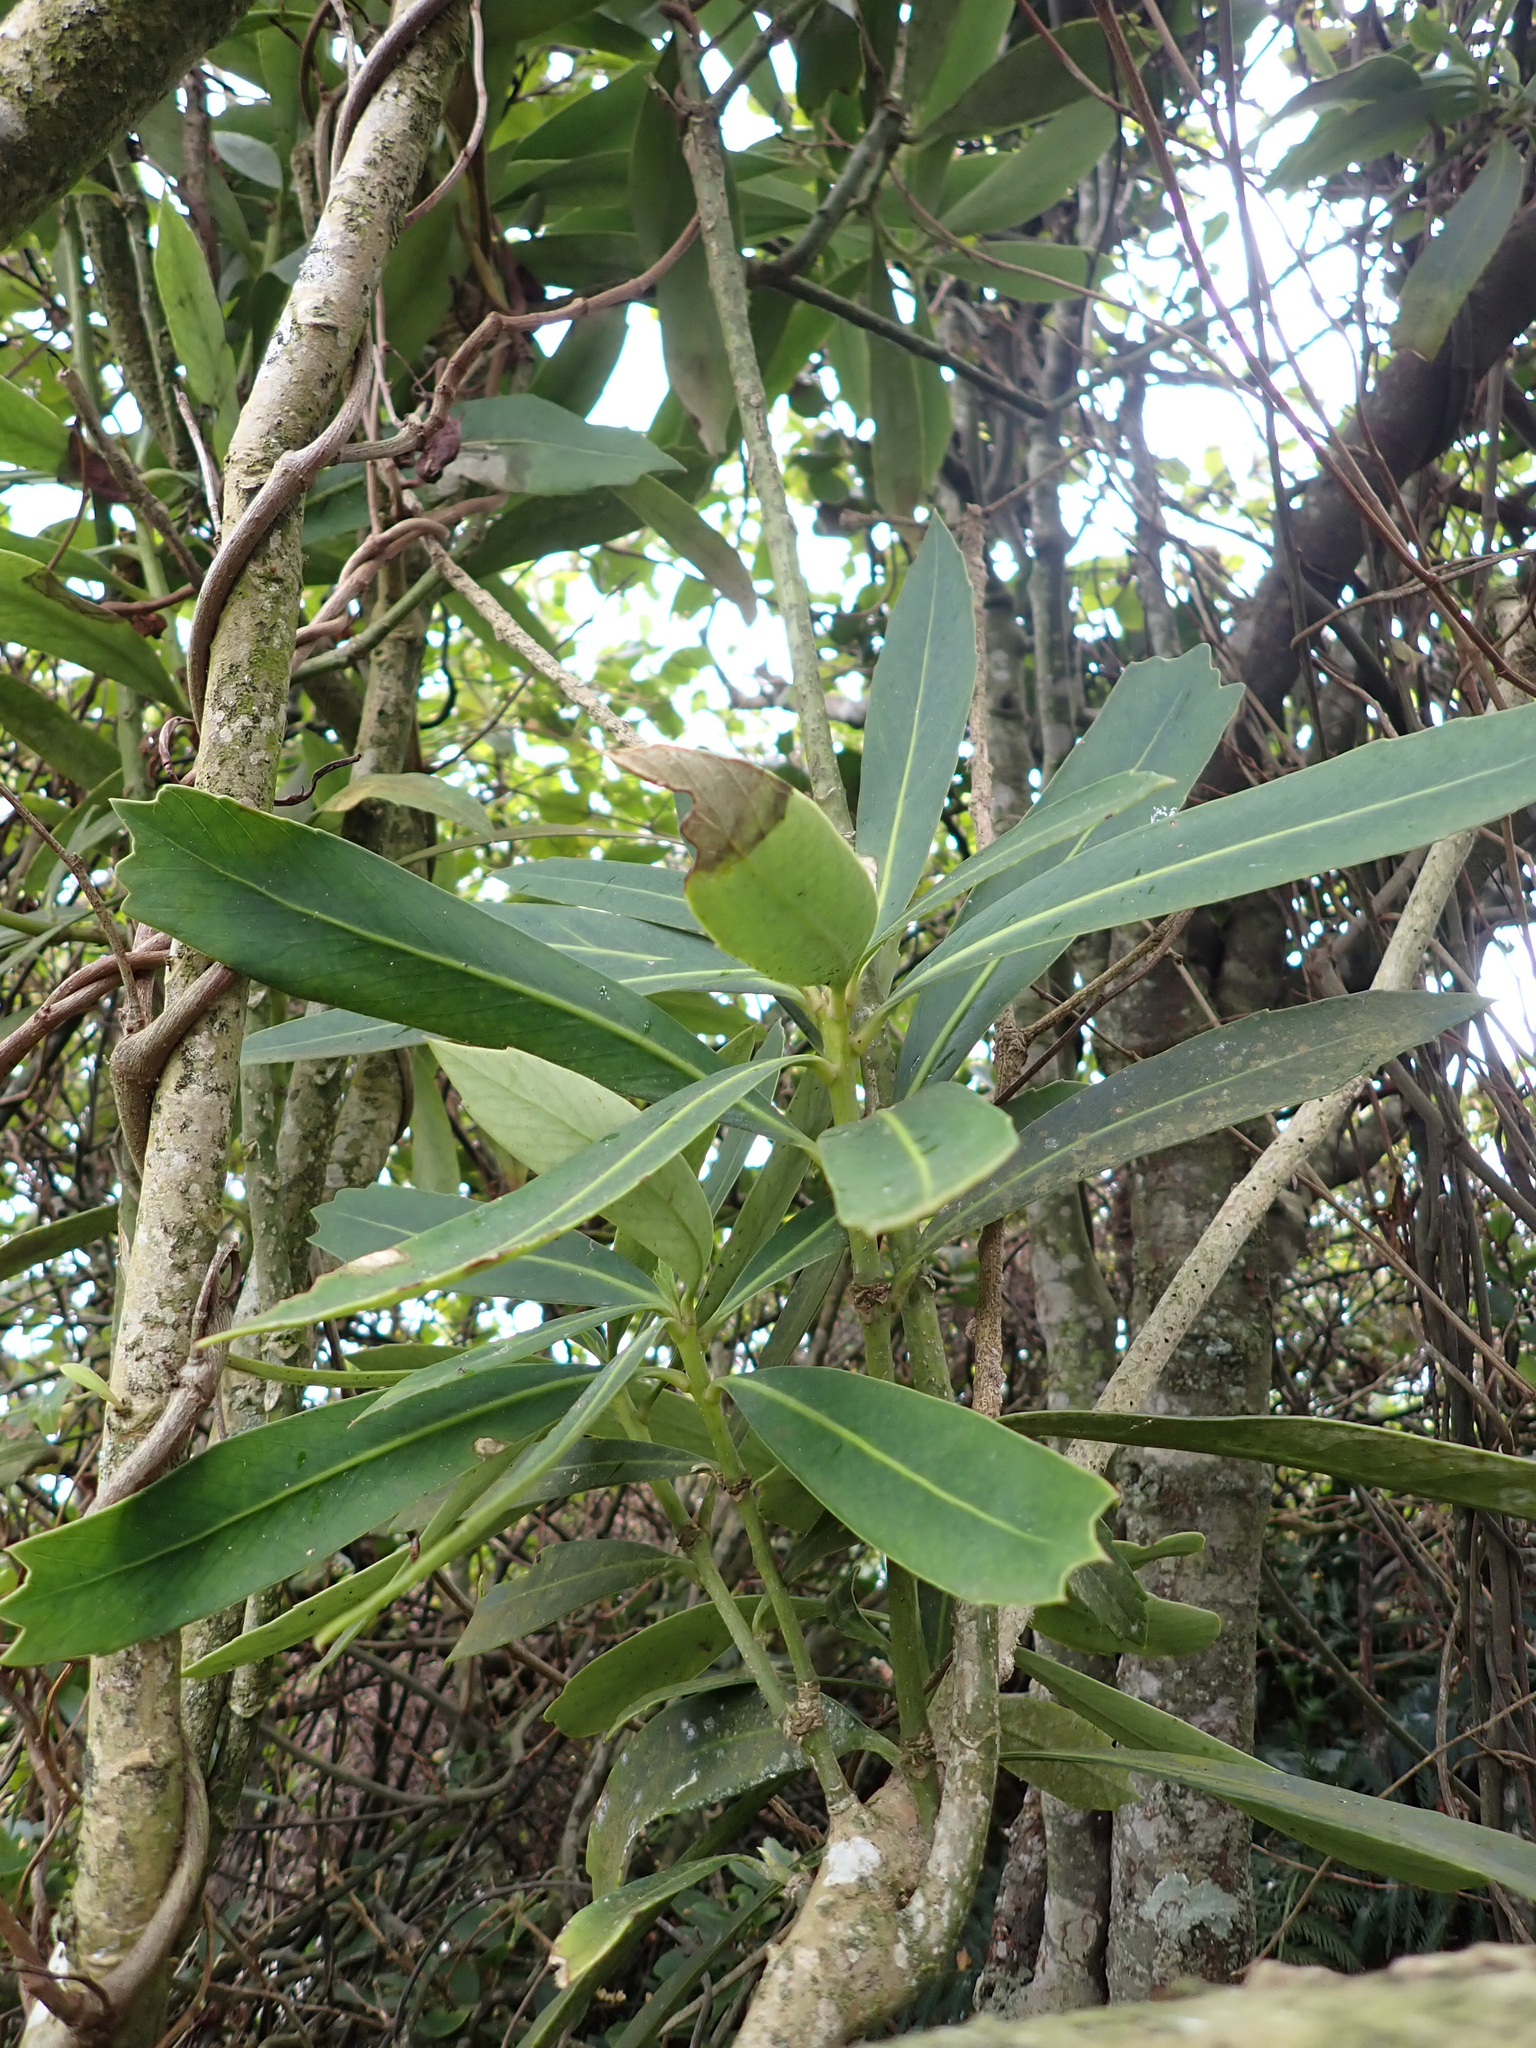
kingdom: Plantae
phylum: Tracheophyta
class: Magnoliopsida
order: Apiales
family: Araliaceae
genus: Pseudopanax
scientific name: Pseudopanax chathamicus
